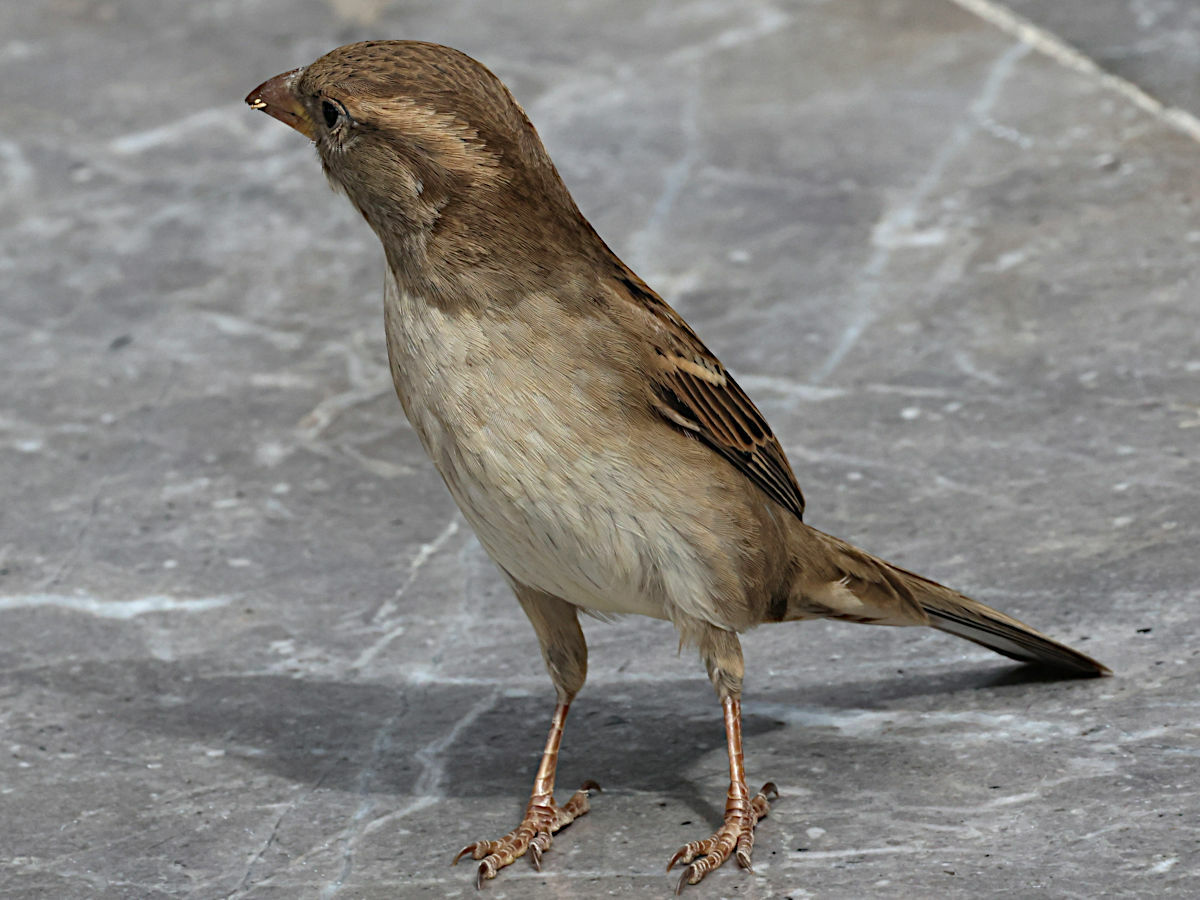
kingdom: Animalia
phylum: Chordata
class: Aves
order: Passeriformes
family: Passeridae
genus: Passer
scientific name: Passer domesticus
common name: House sparrow
